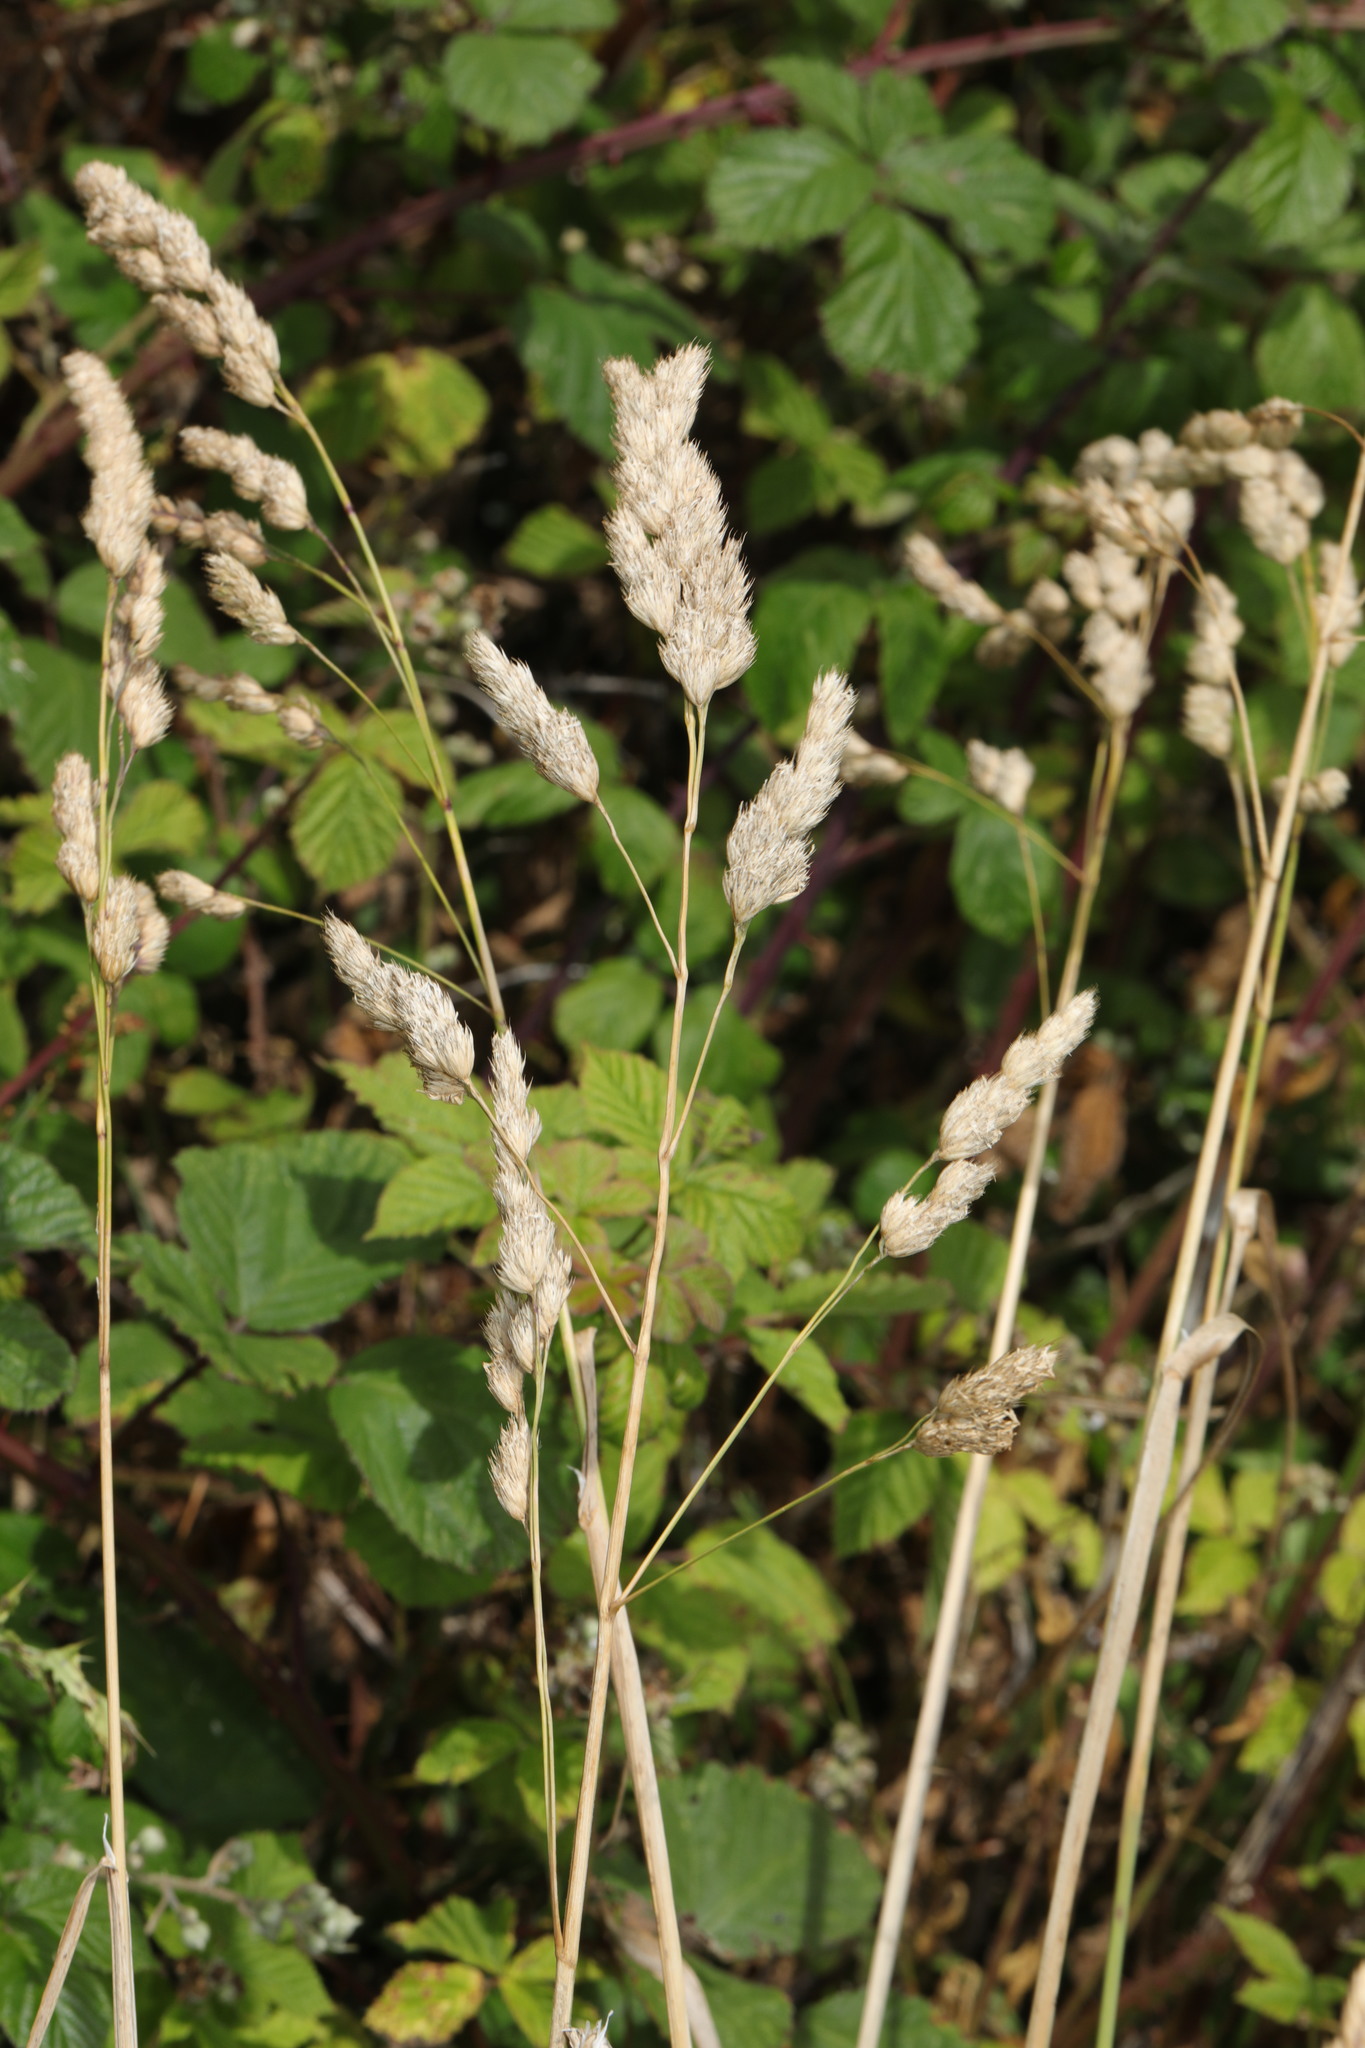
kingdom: Plantae
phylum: Tracheophyta
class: Liliopsida
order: Poales
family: Poaceae
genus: Dactylis
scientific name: Dactylis glomerata
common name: Orchardgrass
